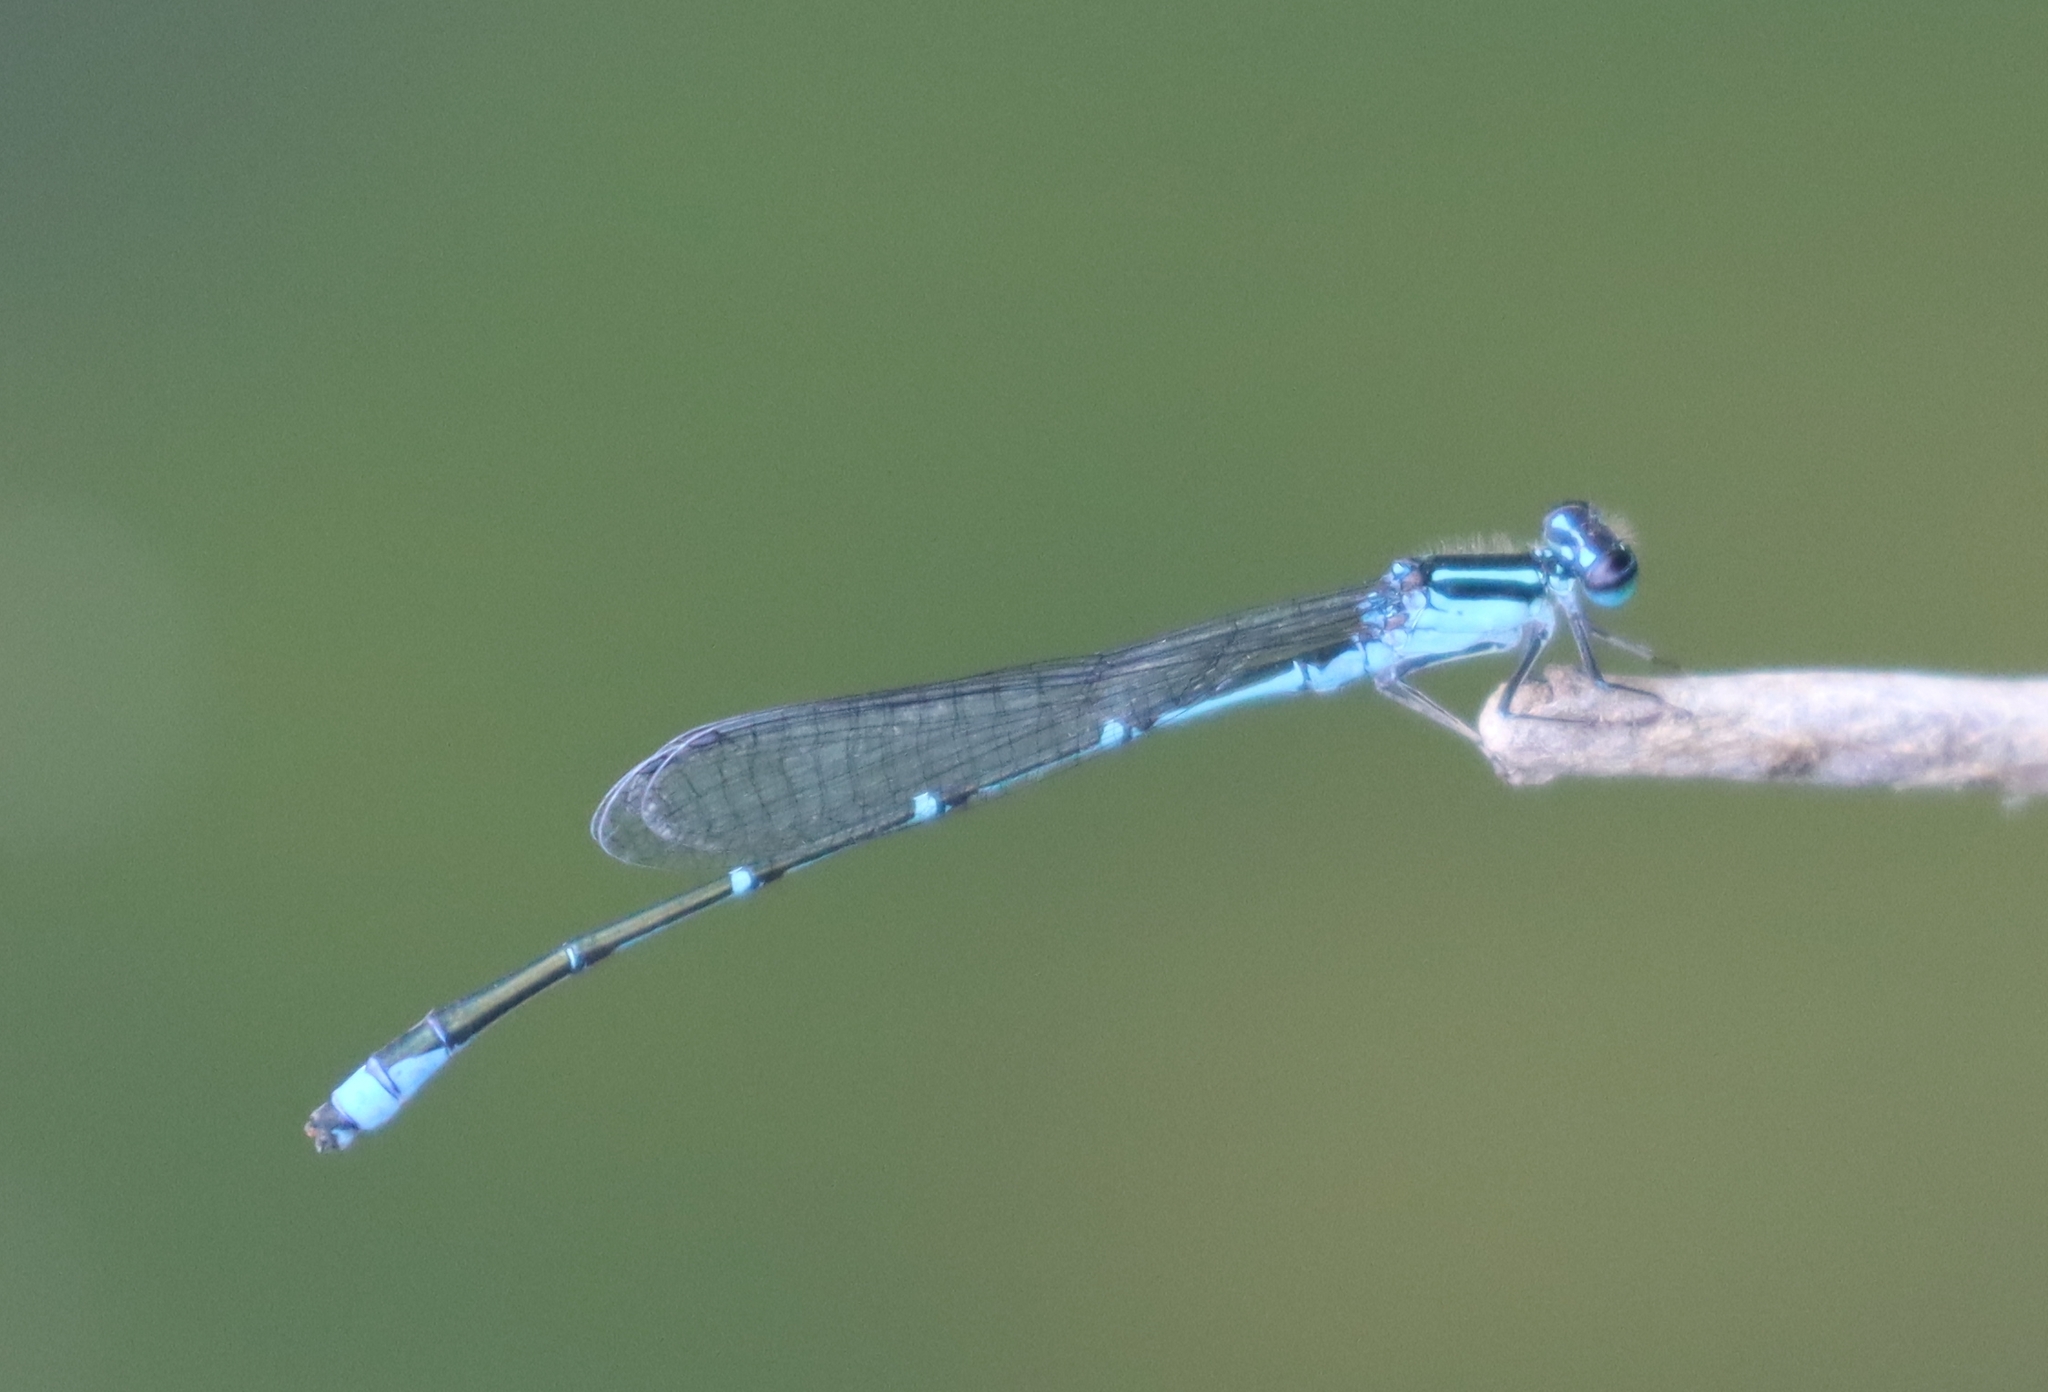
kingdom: Animalia
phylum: Arthropoda
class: Insecta
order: Odonata
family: Coenagrionidae
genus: Enallagma
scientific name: Enallagma exsulans
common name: Stream bluet
